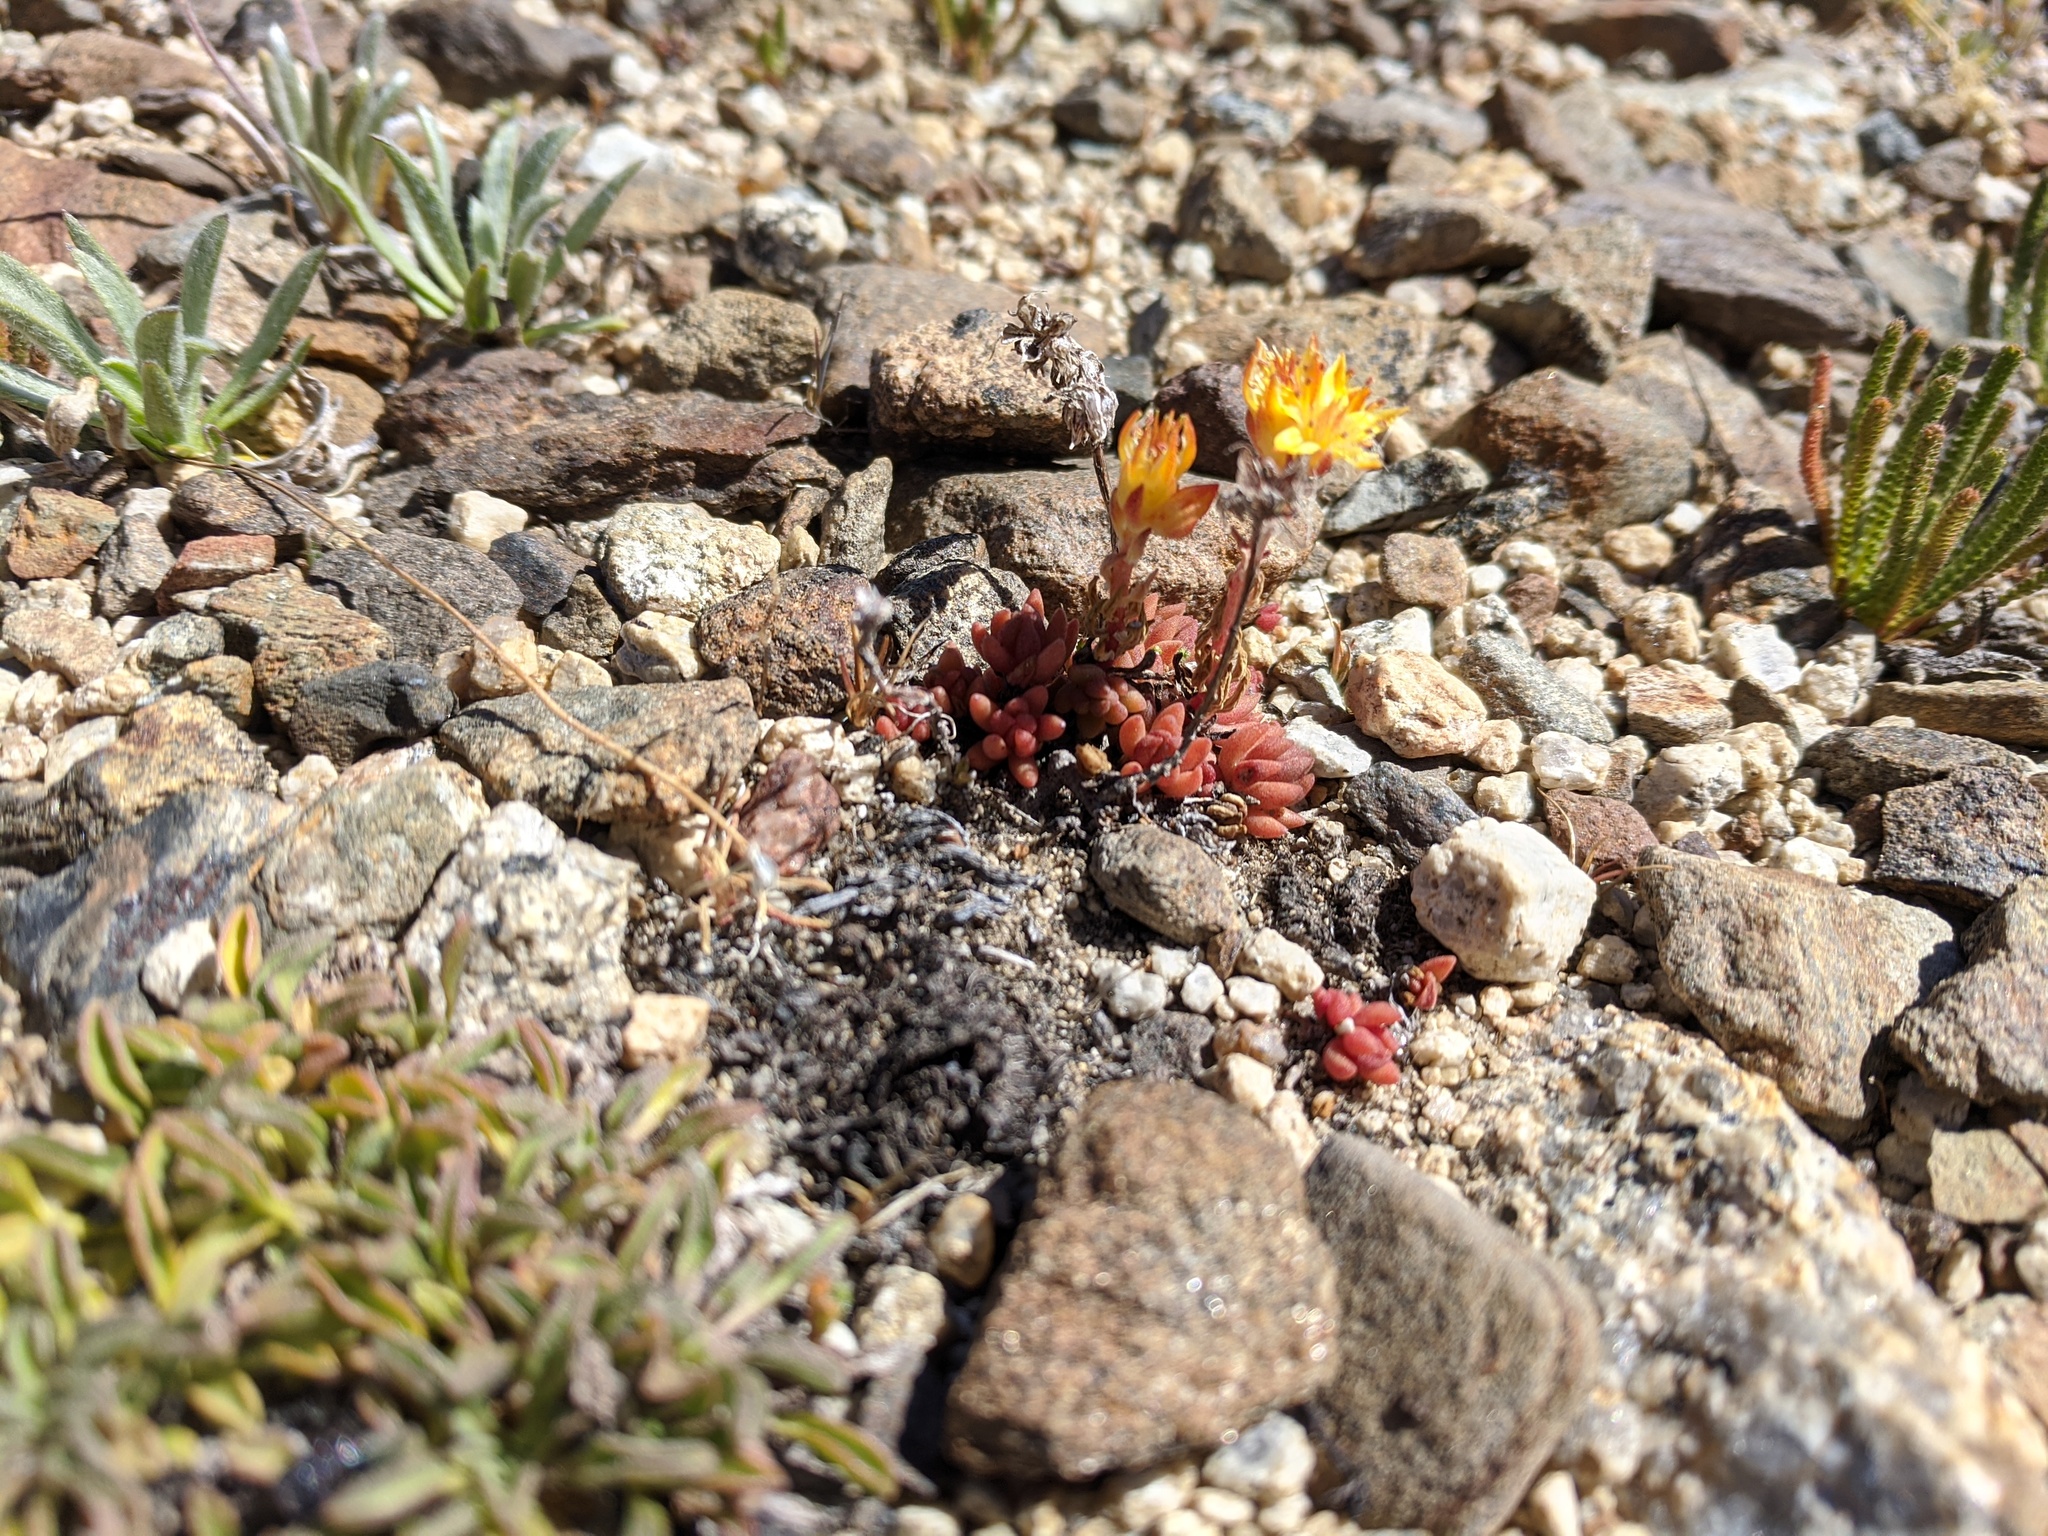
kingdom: Plantae
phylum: Tracheophyta
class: Magnoliopsida
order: Saxifragales
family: Crassulaceae
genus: Sedum
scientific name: Sedum lanceolatum
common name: Common stonecrop
